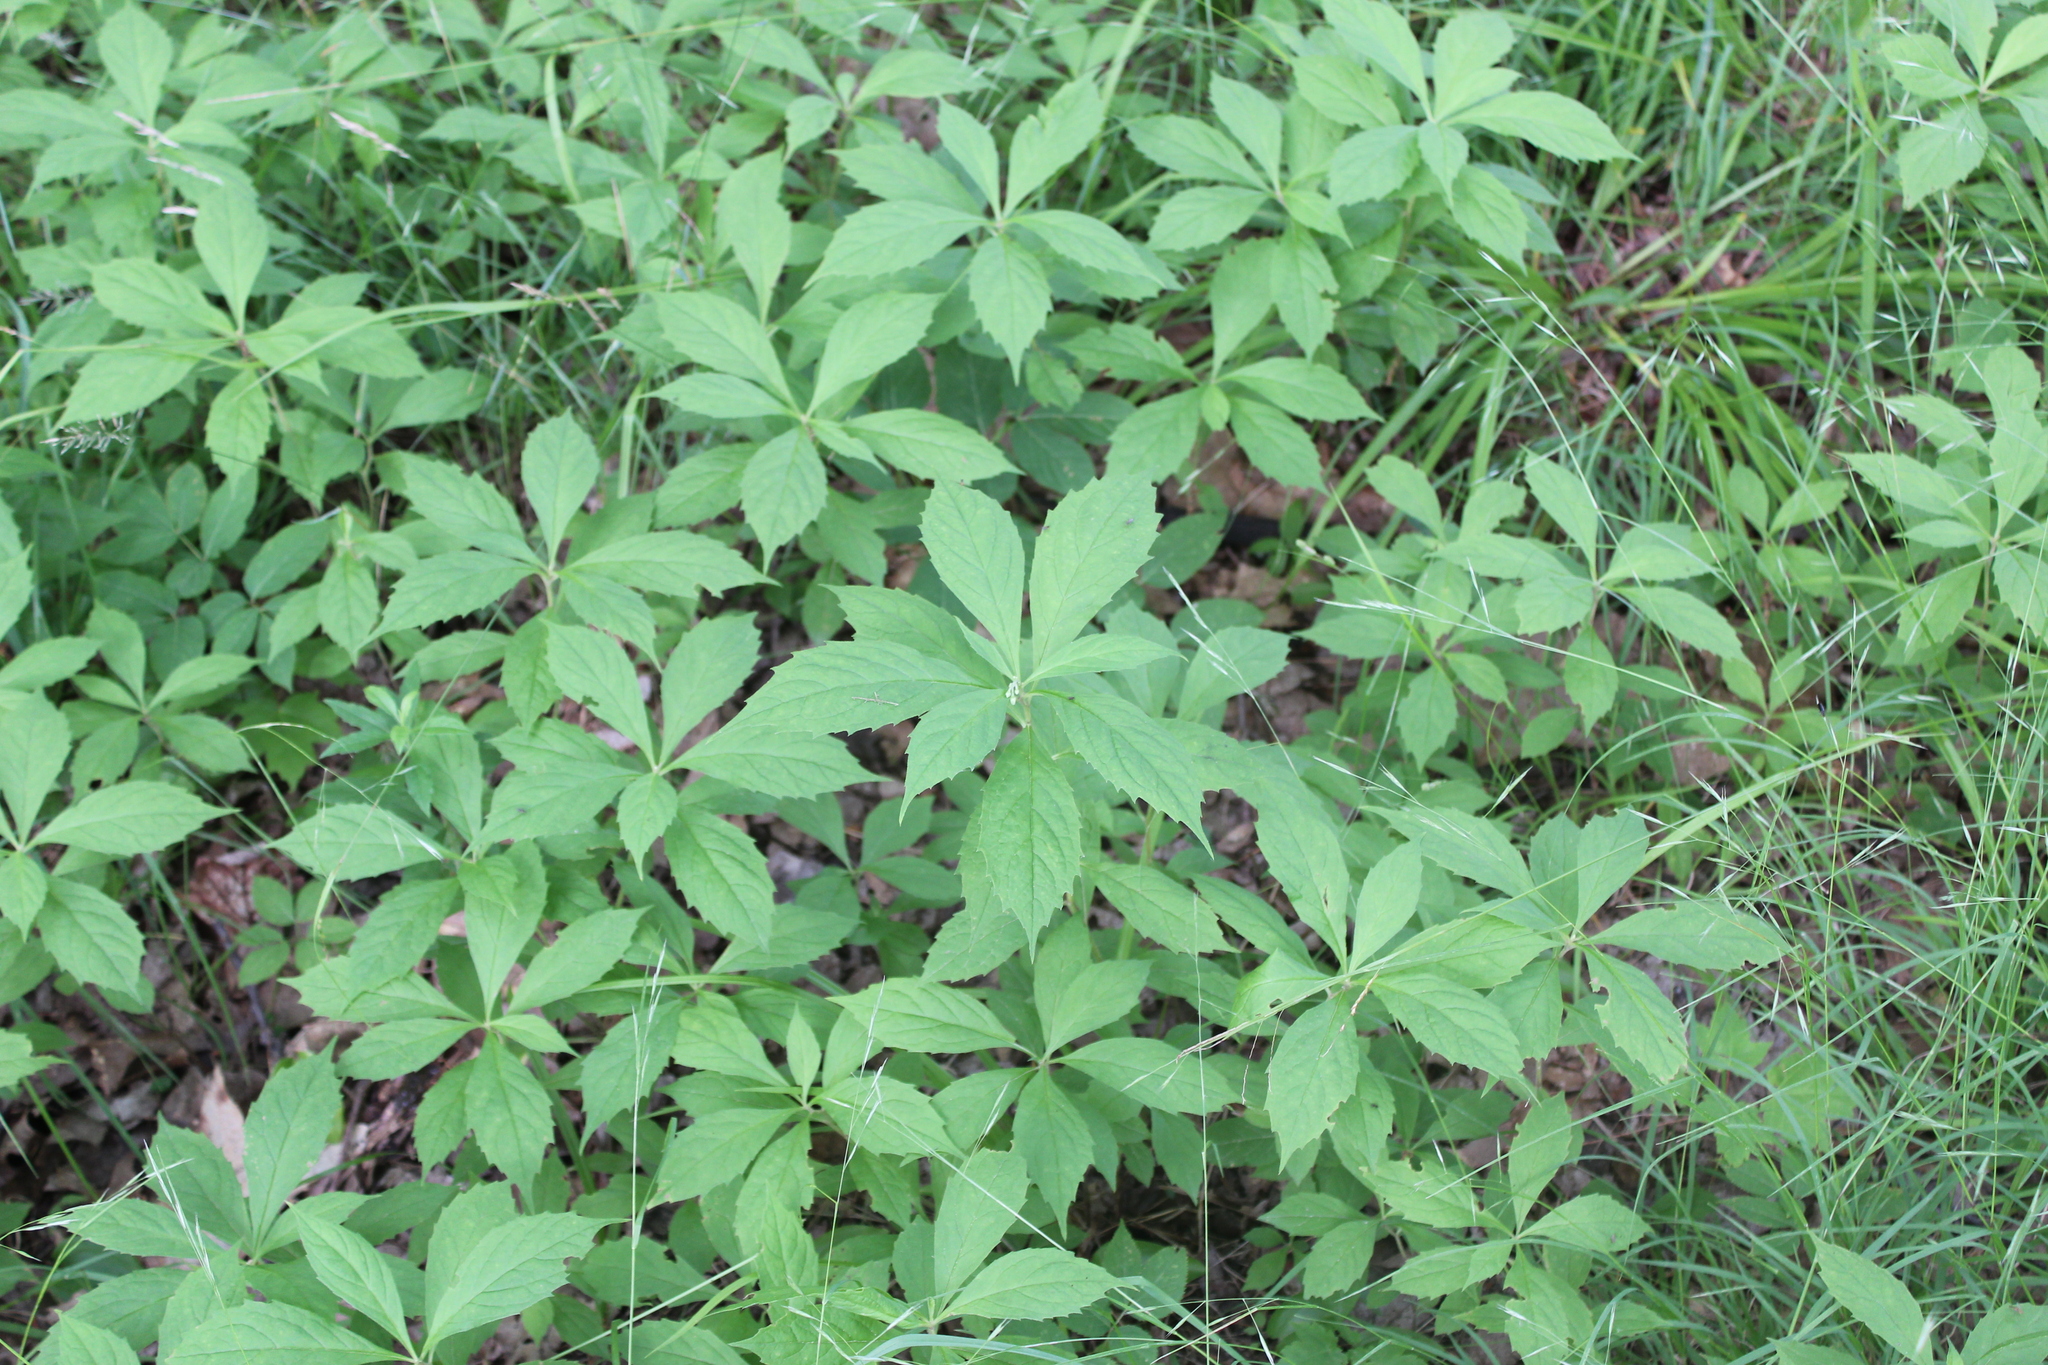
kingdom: Plantae
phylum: Tracheophyta
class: Magnoliopsida
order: Asterales
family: Asteraceae
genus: Oclemena
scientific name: Oclemena acuminata
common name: Mountain aster
